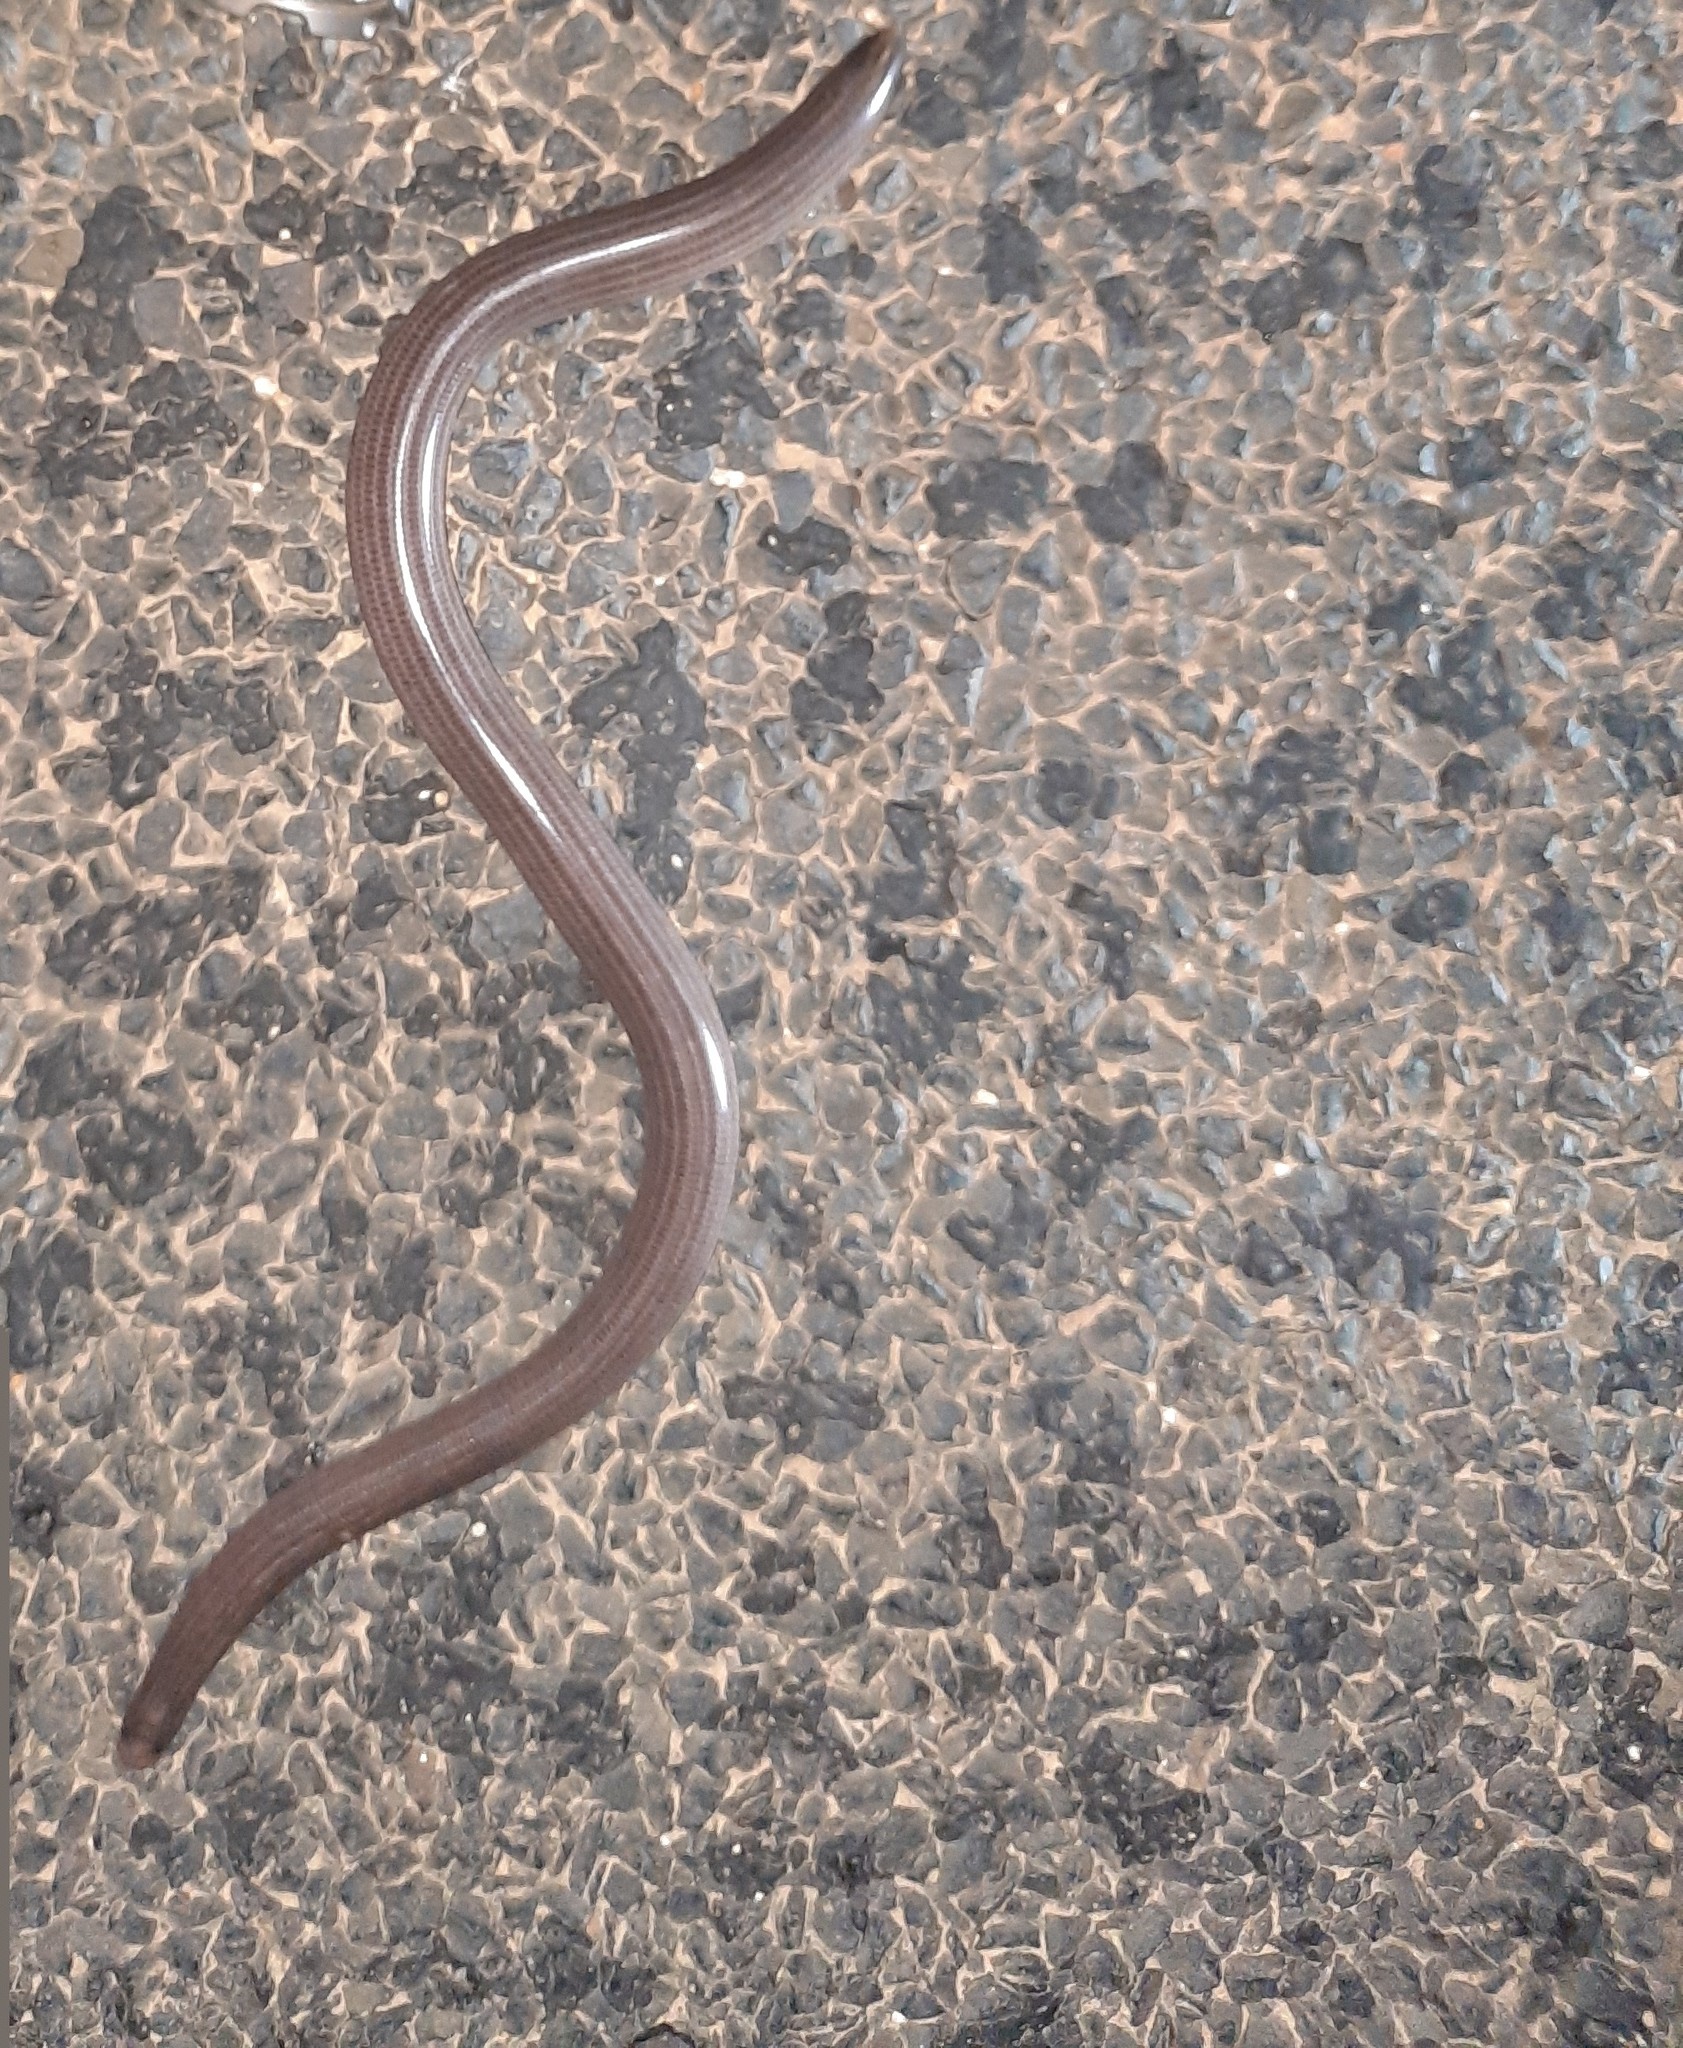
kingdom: Animalia
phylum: Chordata
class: Squamata
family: Typhlopidae
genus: Anilios
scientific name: Anilios bicolor
